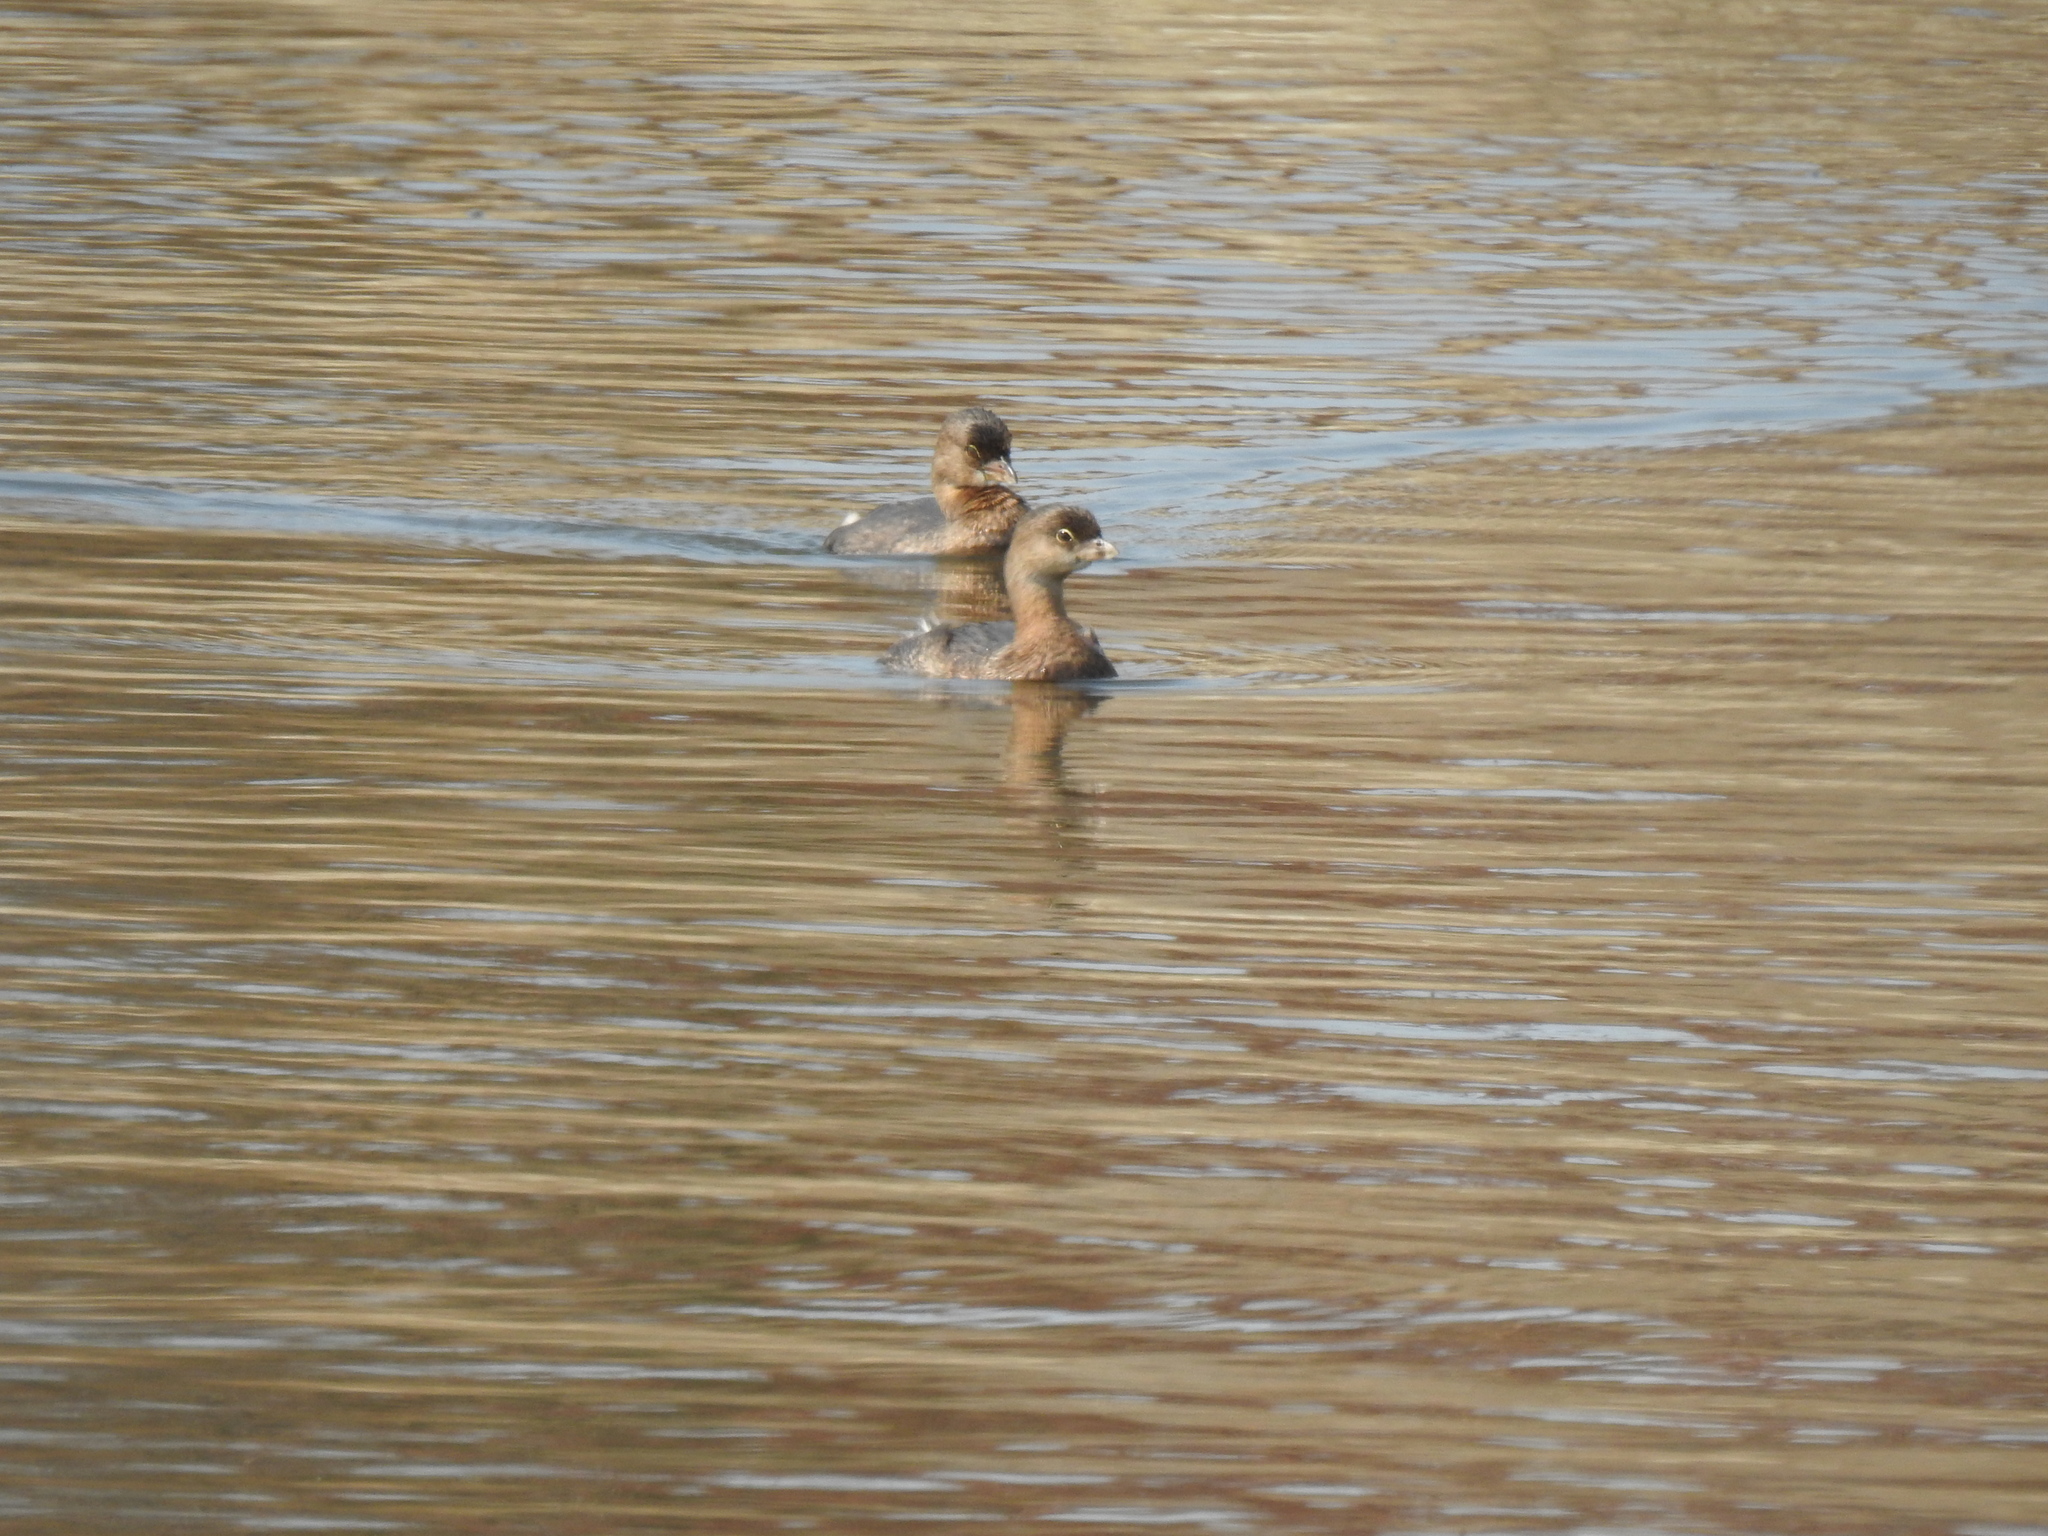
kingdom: Animalia
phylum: Chordata
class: Aves
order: Podicipediformes
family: Podicipedidae
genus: Podilymbus
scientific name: Podilymbus podiceps
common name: Pied-billed grebe
